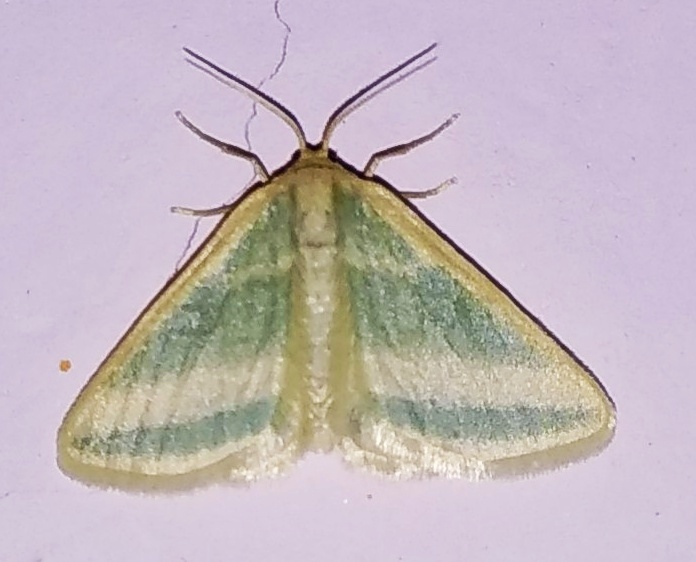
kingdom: Animalia
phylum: Arthropoda
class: Insecta
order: Lepidoptera
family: Geometridae
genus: Mixocera
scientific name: Mixocera parvulata
